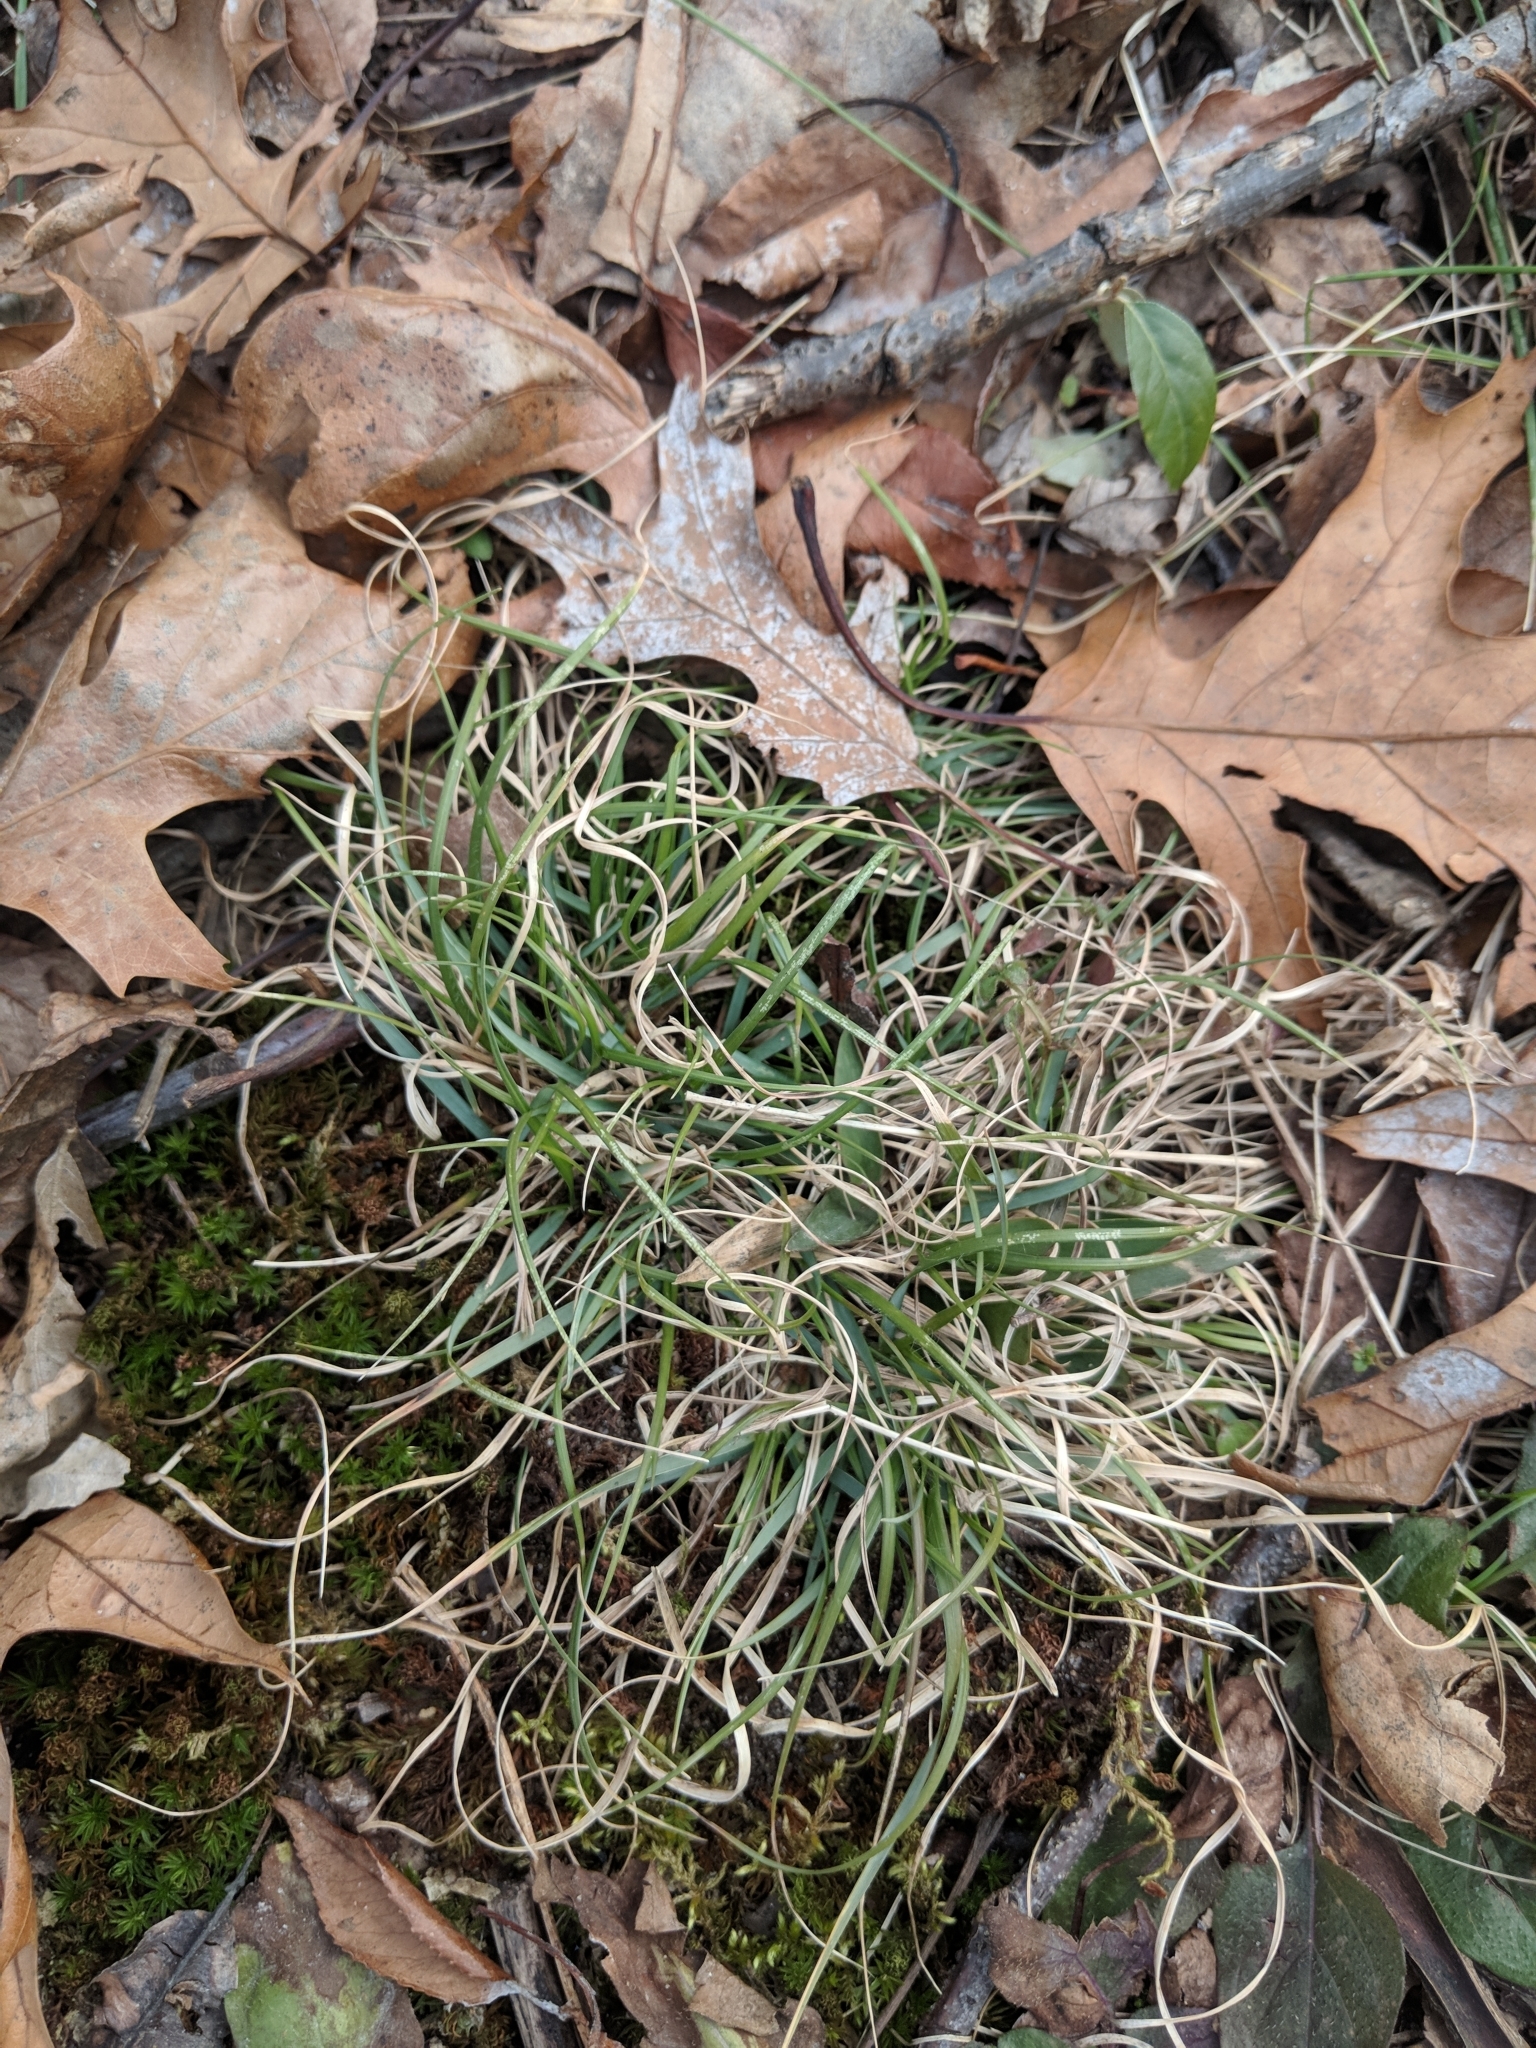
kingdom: Plantae
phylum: Tracheophyta
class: Liliopsida
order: Poales
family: Poaceae
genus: Danthonia
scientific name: Danthonia spicata
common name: Common wild oatgrass
